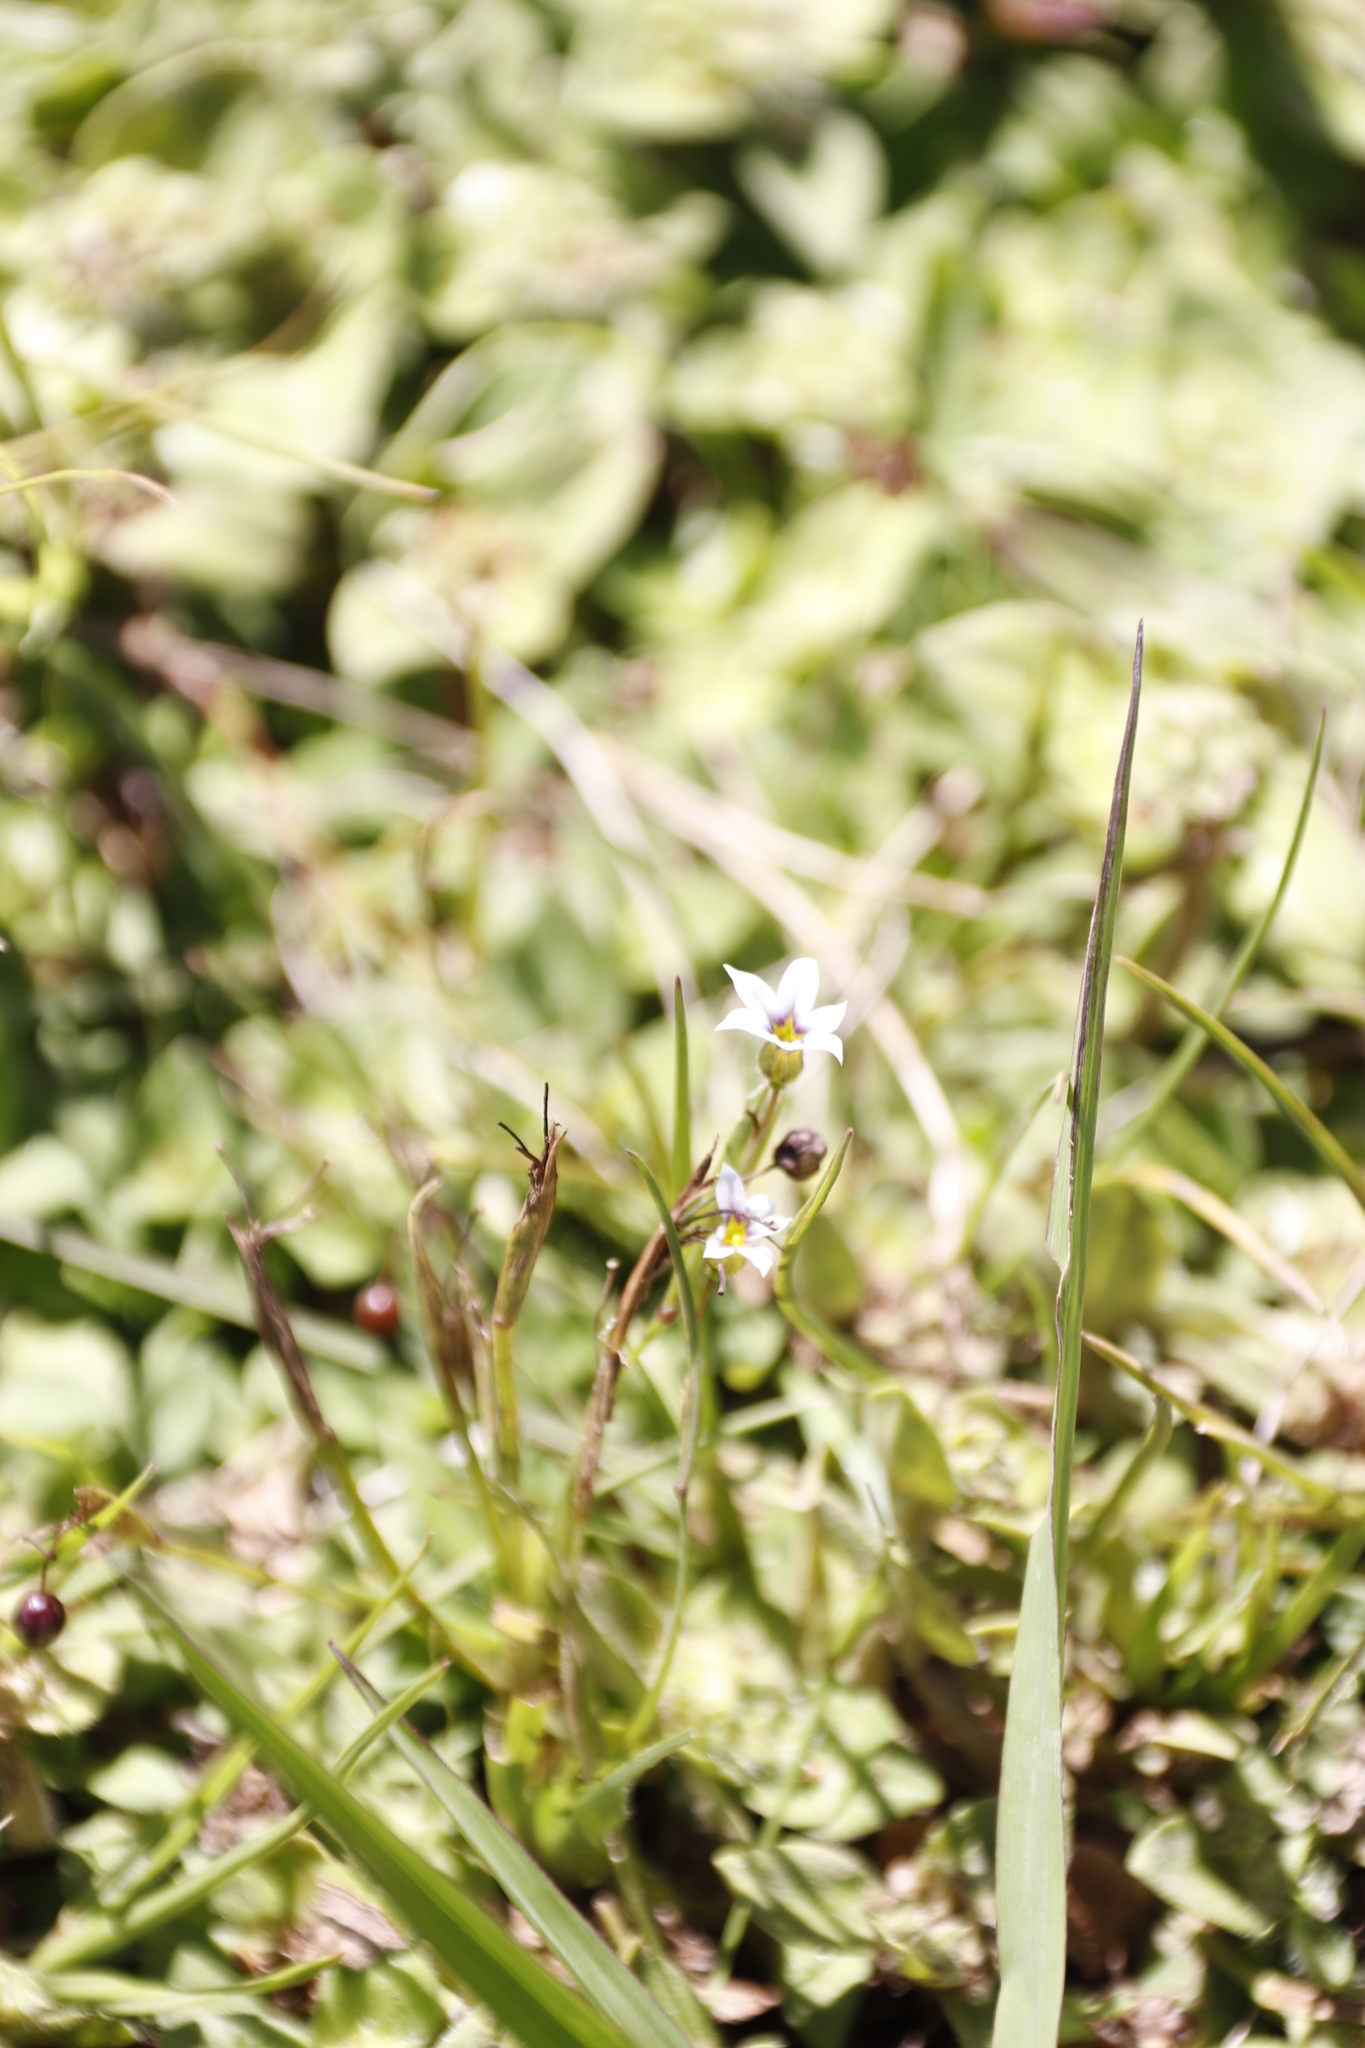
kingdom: Plantae
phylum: Tracheophyta
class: Liliopsida
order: Asparagales
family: Iridaceae
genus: Sisyrinchium
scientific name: Sisyrinchium micranthum
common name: Bermuda pigroot
